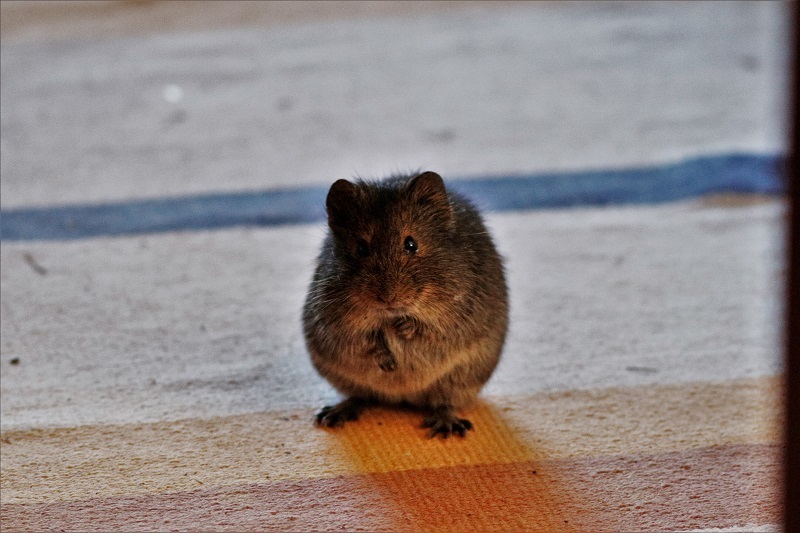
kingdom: Animalia
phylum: Chordata
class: Mammalia
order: Rodentia
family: Muridae
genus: Otomys
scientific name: Otomys irroratus
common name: Southern african vlei rat
